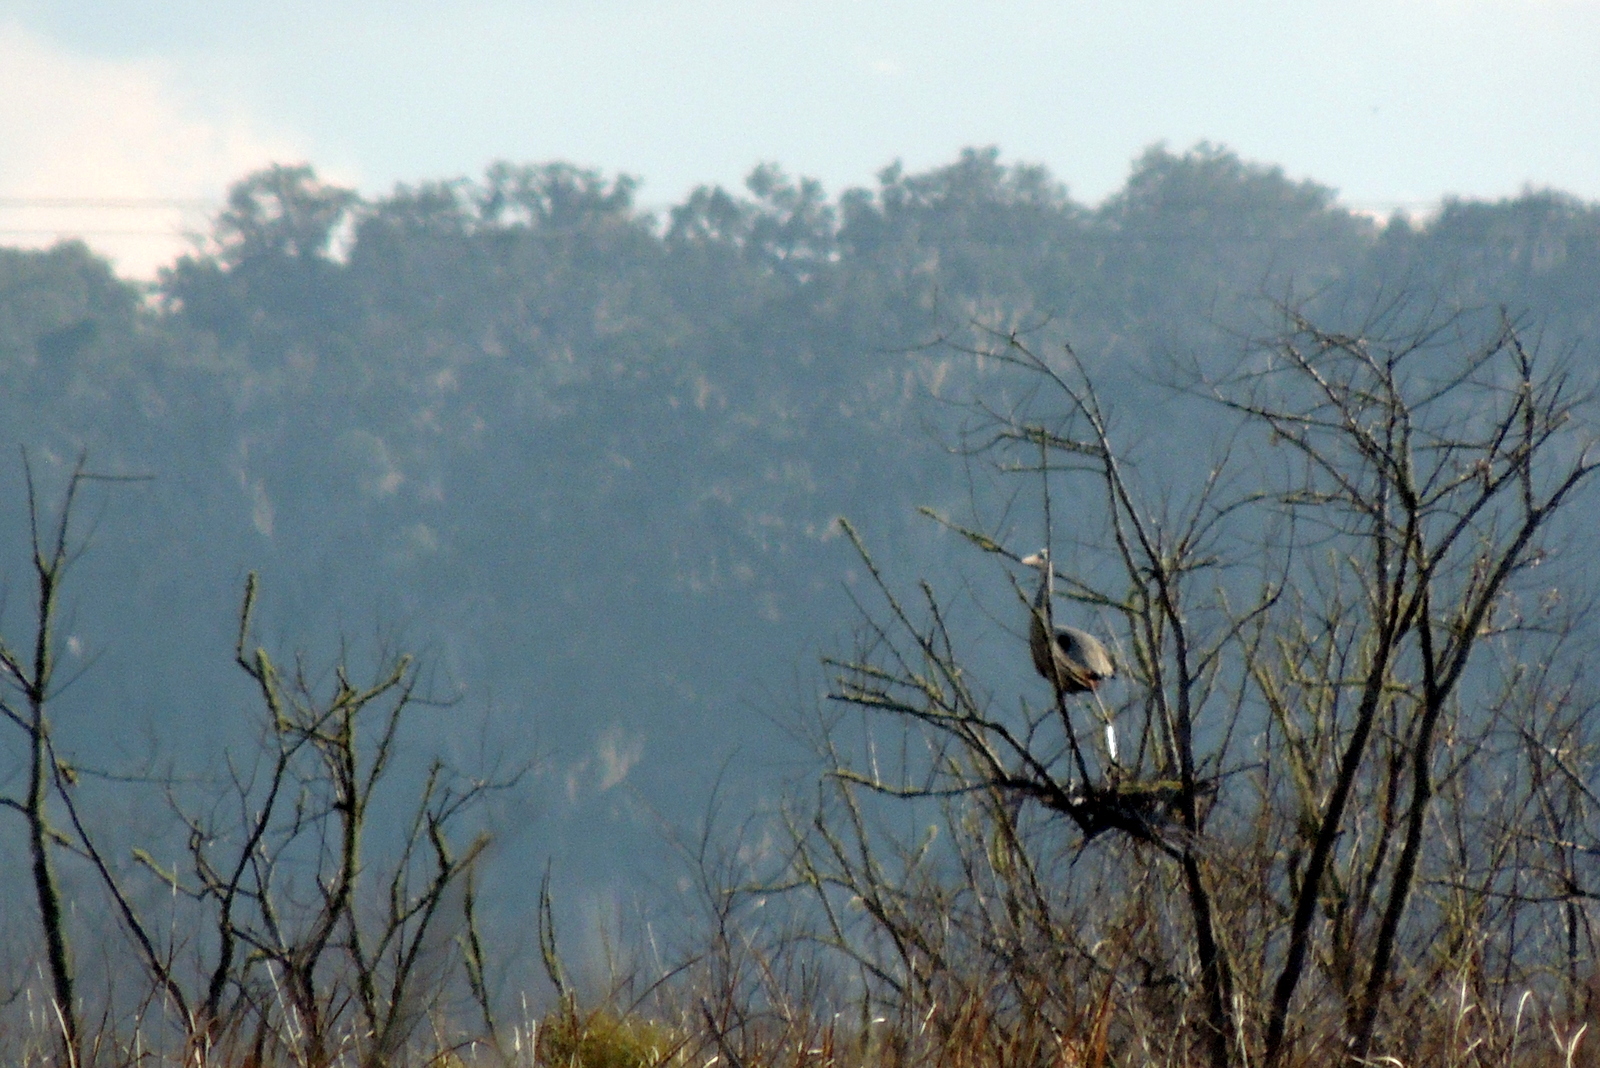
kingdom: Animalia
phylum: Chordata
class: Aves
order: Pelecaniformes
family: Ardeidae
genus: Ardea
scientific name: Ardea herodias
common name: Great blue heron
